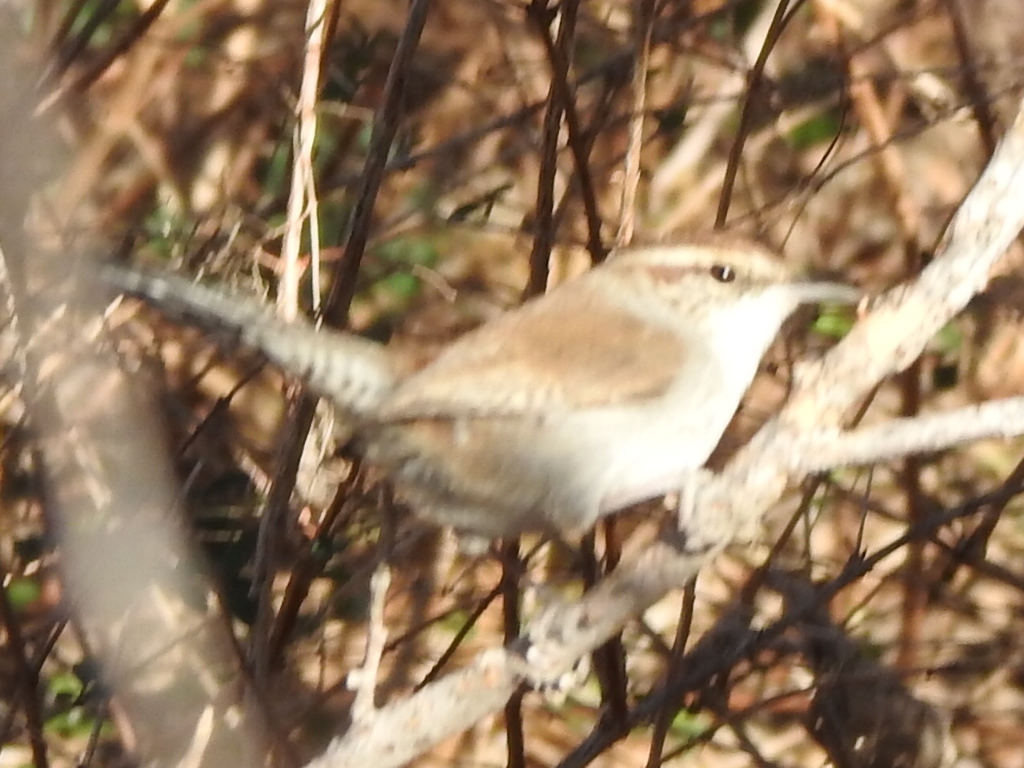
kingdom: Animalia
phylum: Chordata
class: Aves
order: Passeriformes
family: Troglodytidae
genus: Thryomanes
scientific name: Thryomanes bewickii
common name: Bewick's wren
